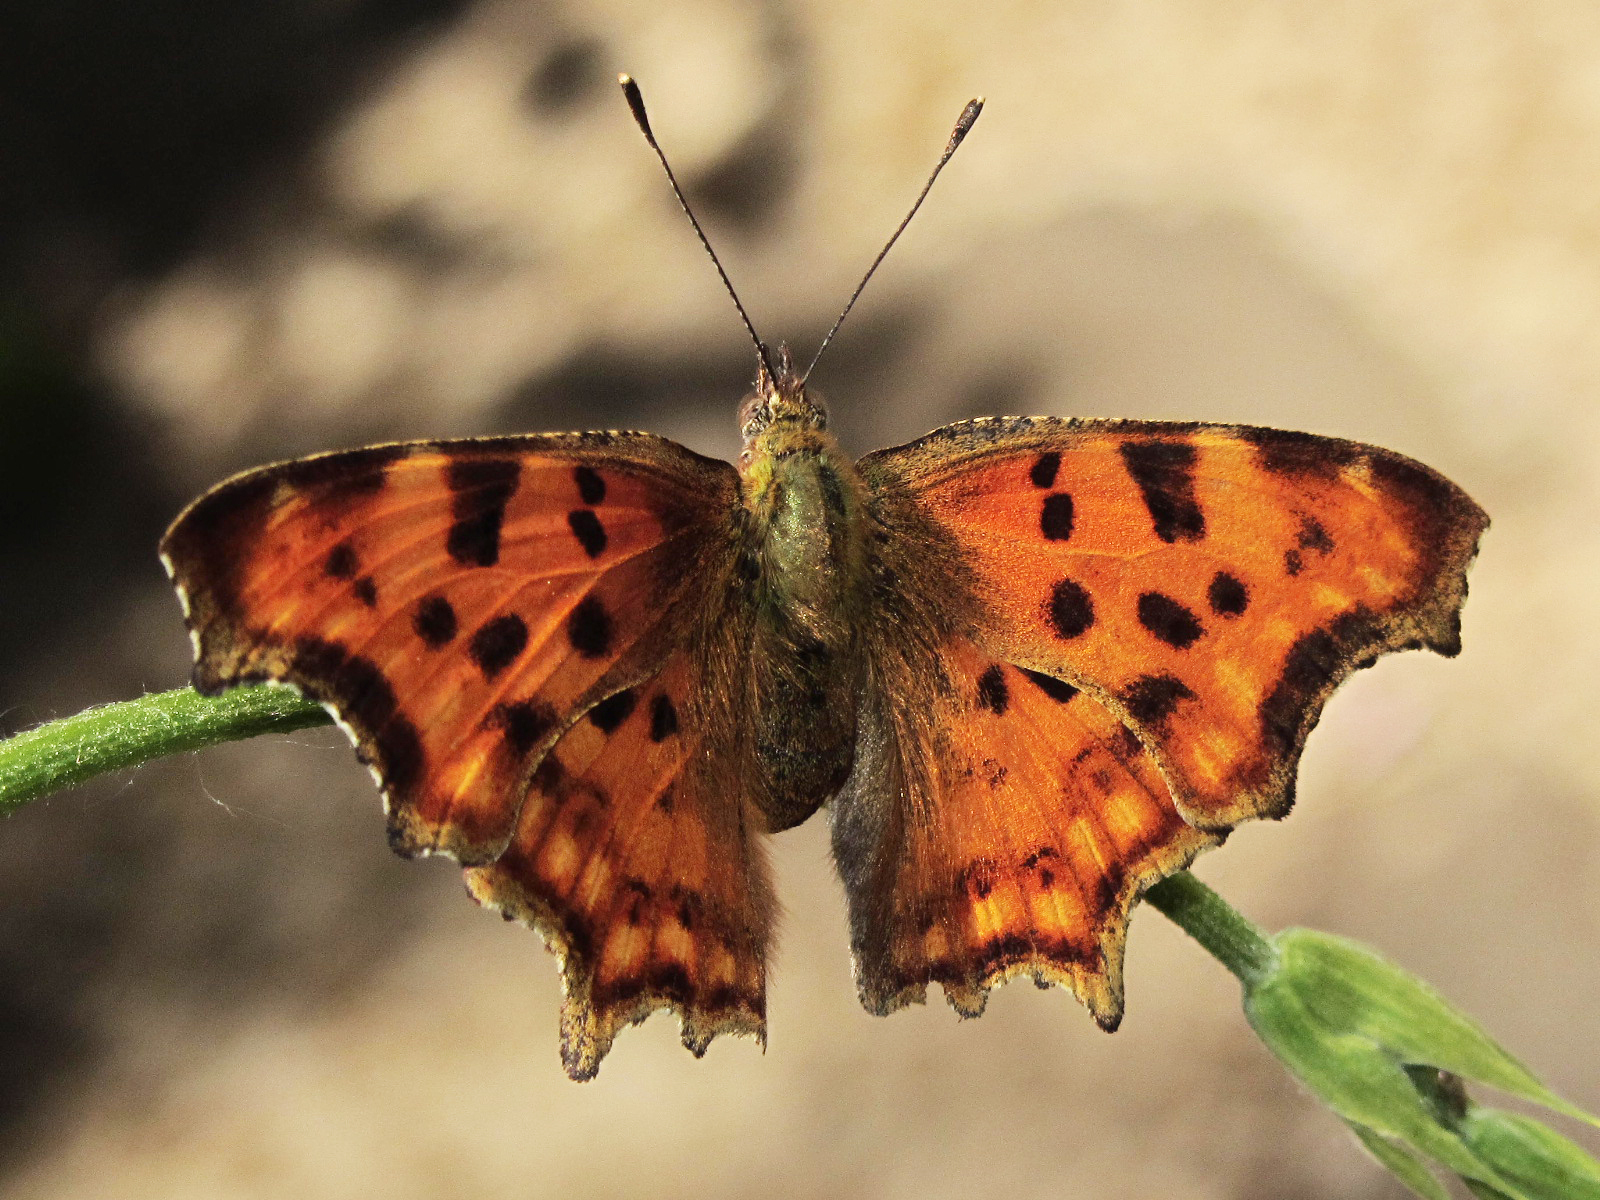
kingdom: Animalia
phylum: Arthropoda
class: Insecta
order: Lepidoptera
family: Nymphalidae
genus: Polygonia
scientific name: Polygonia c-album
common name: Comma
